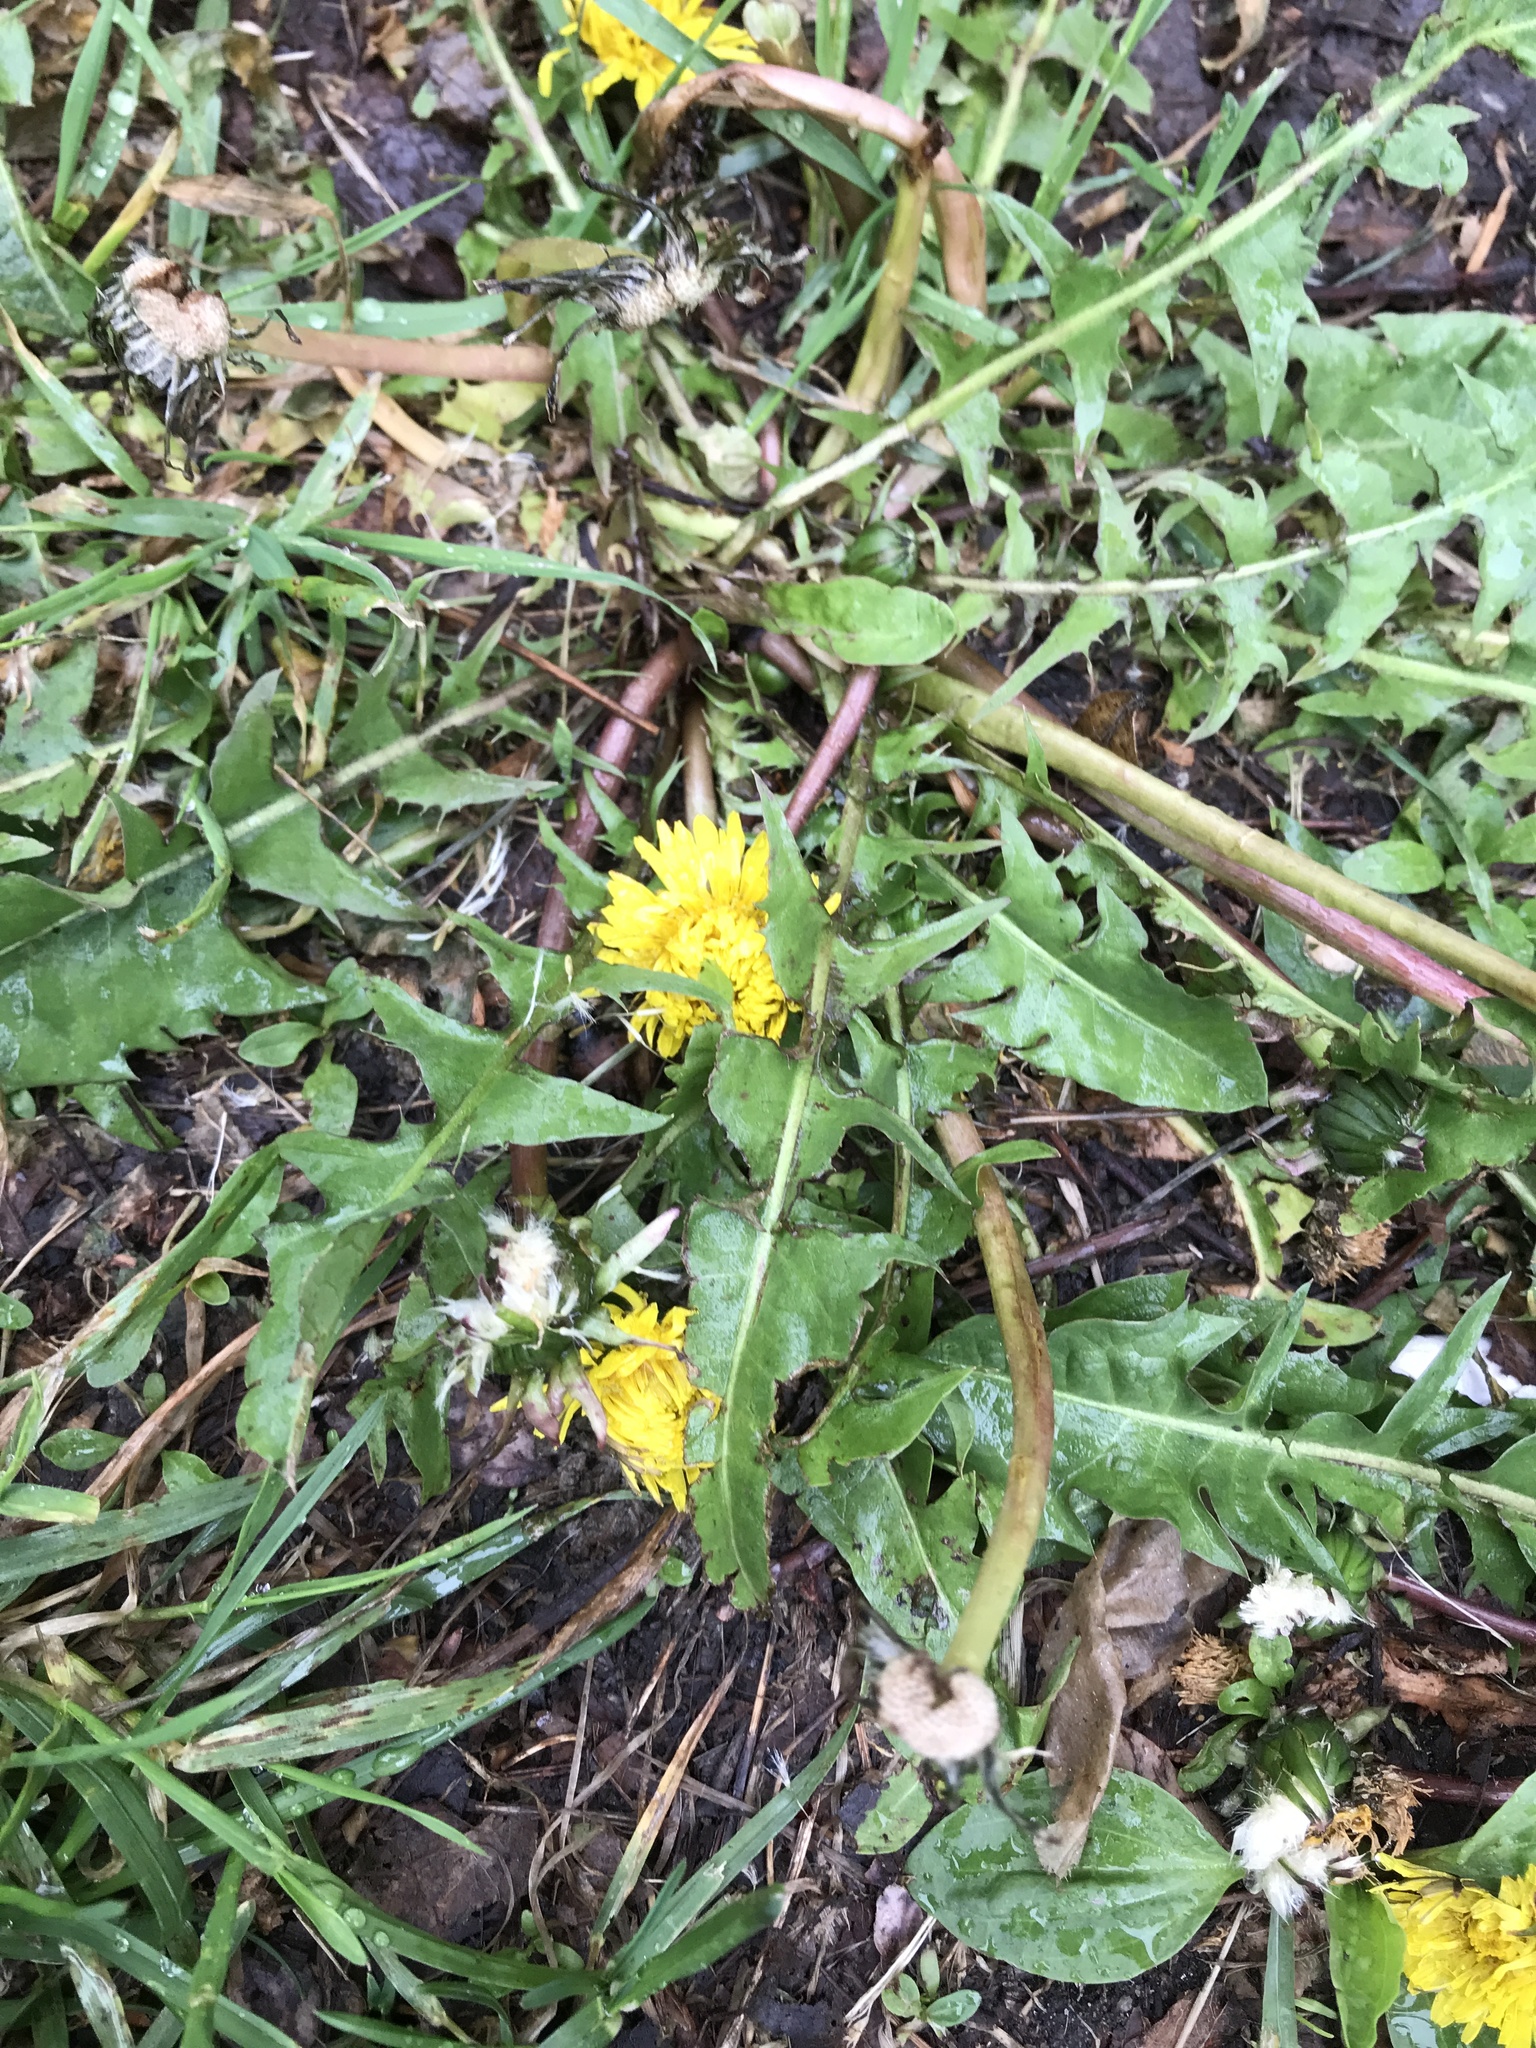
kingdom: Plantae
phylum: Tracheophyta
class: Magnoliopsida
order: Asterales
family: Asteraceae
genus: Taraxacum
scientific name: Taraxacum officinale
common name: Common dandelion
